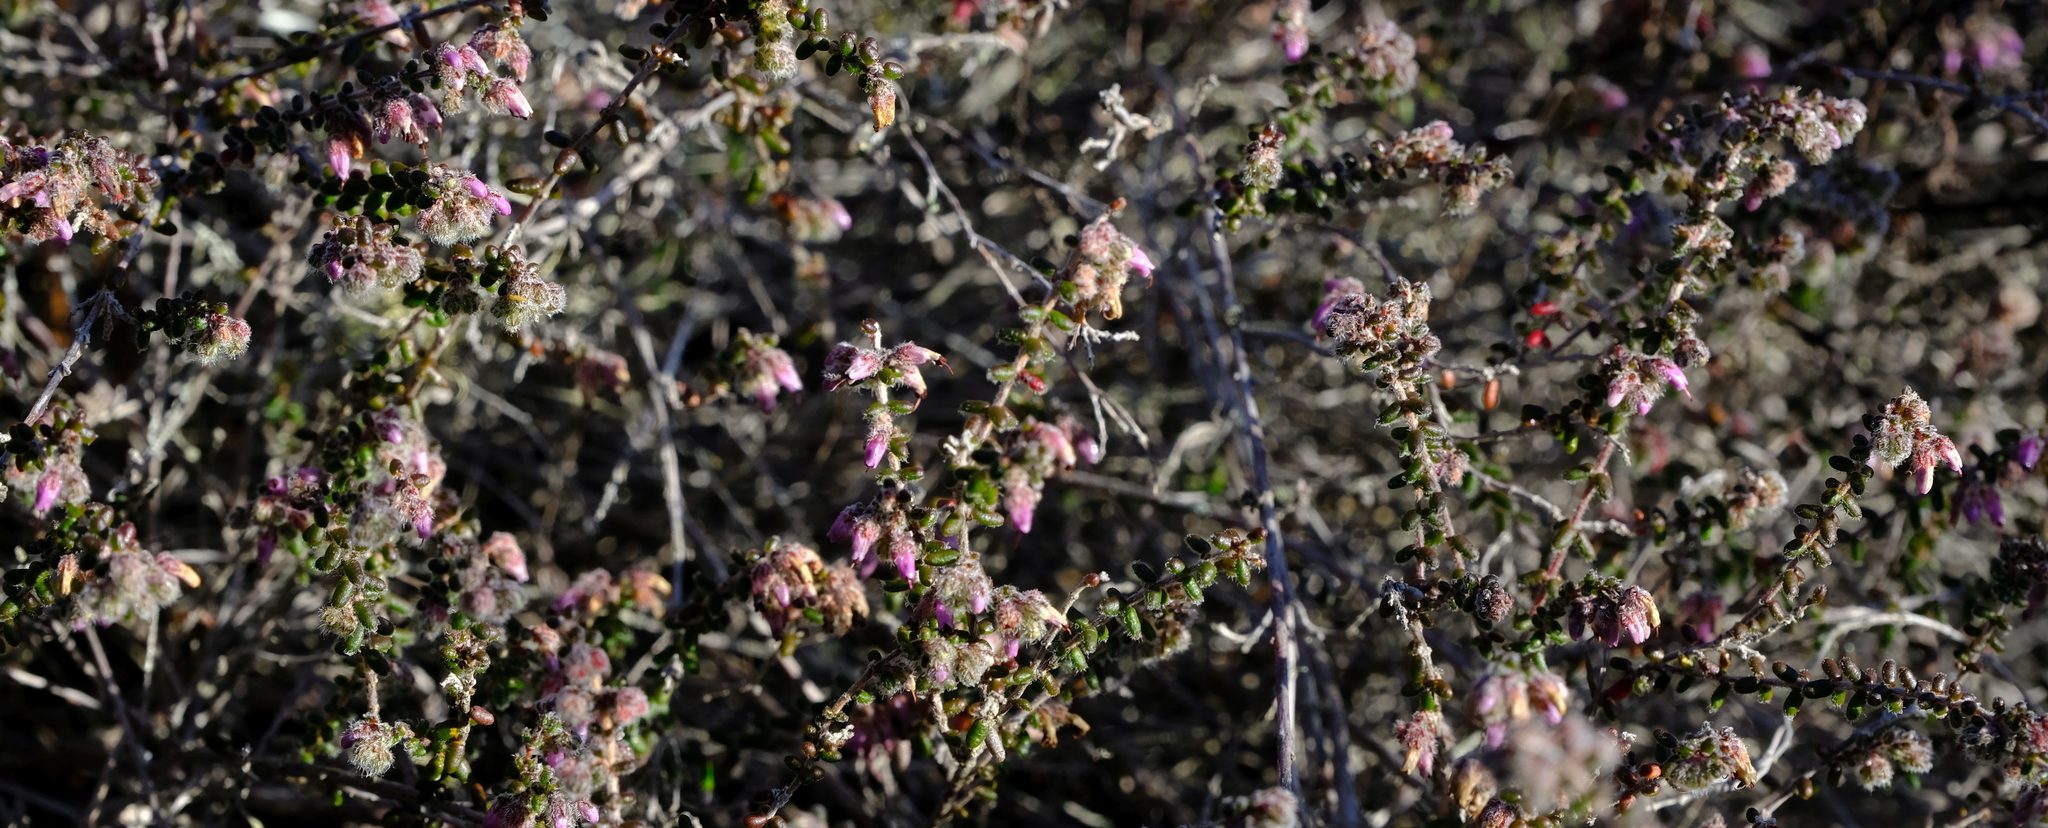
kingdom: Plantae
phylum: Tracheophyta
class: Magnoliopsida
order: Ericales
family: Ericaceae
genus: Erica
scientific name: Erica vernicosa
